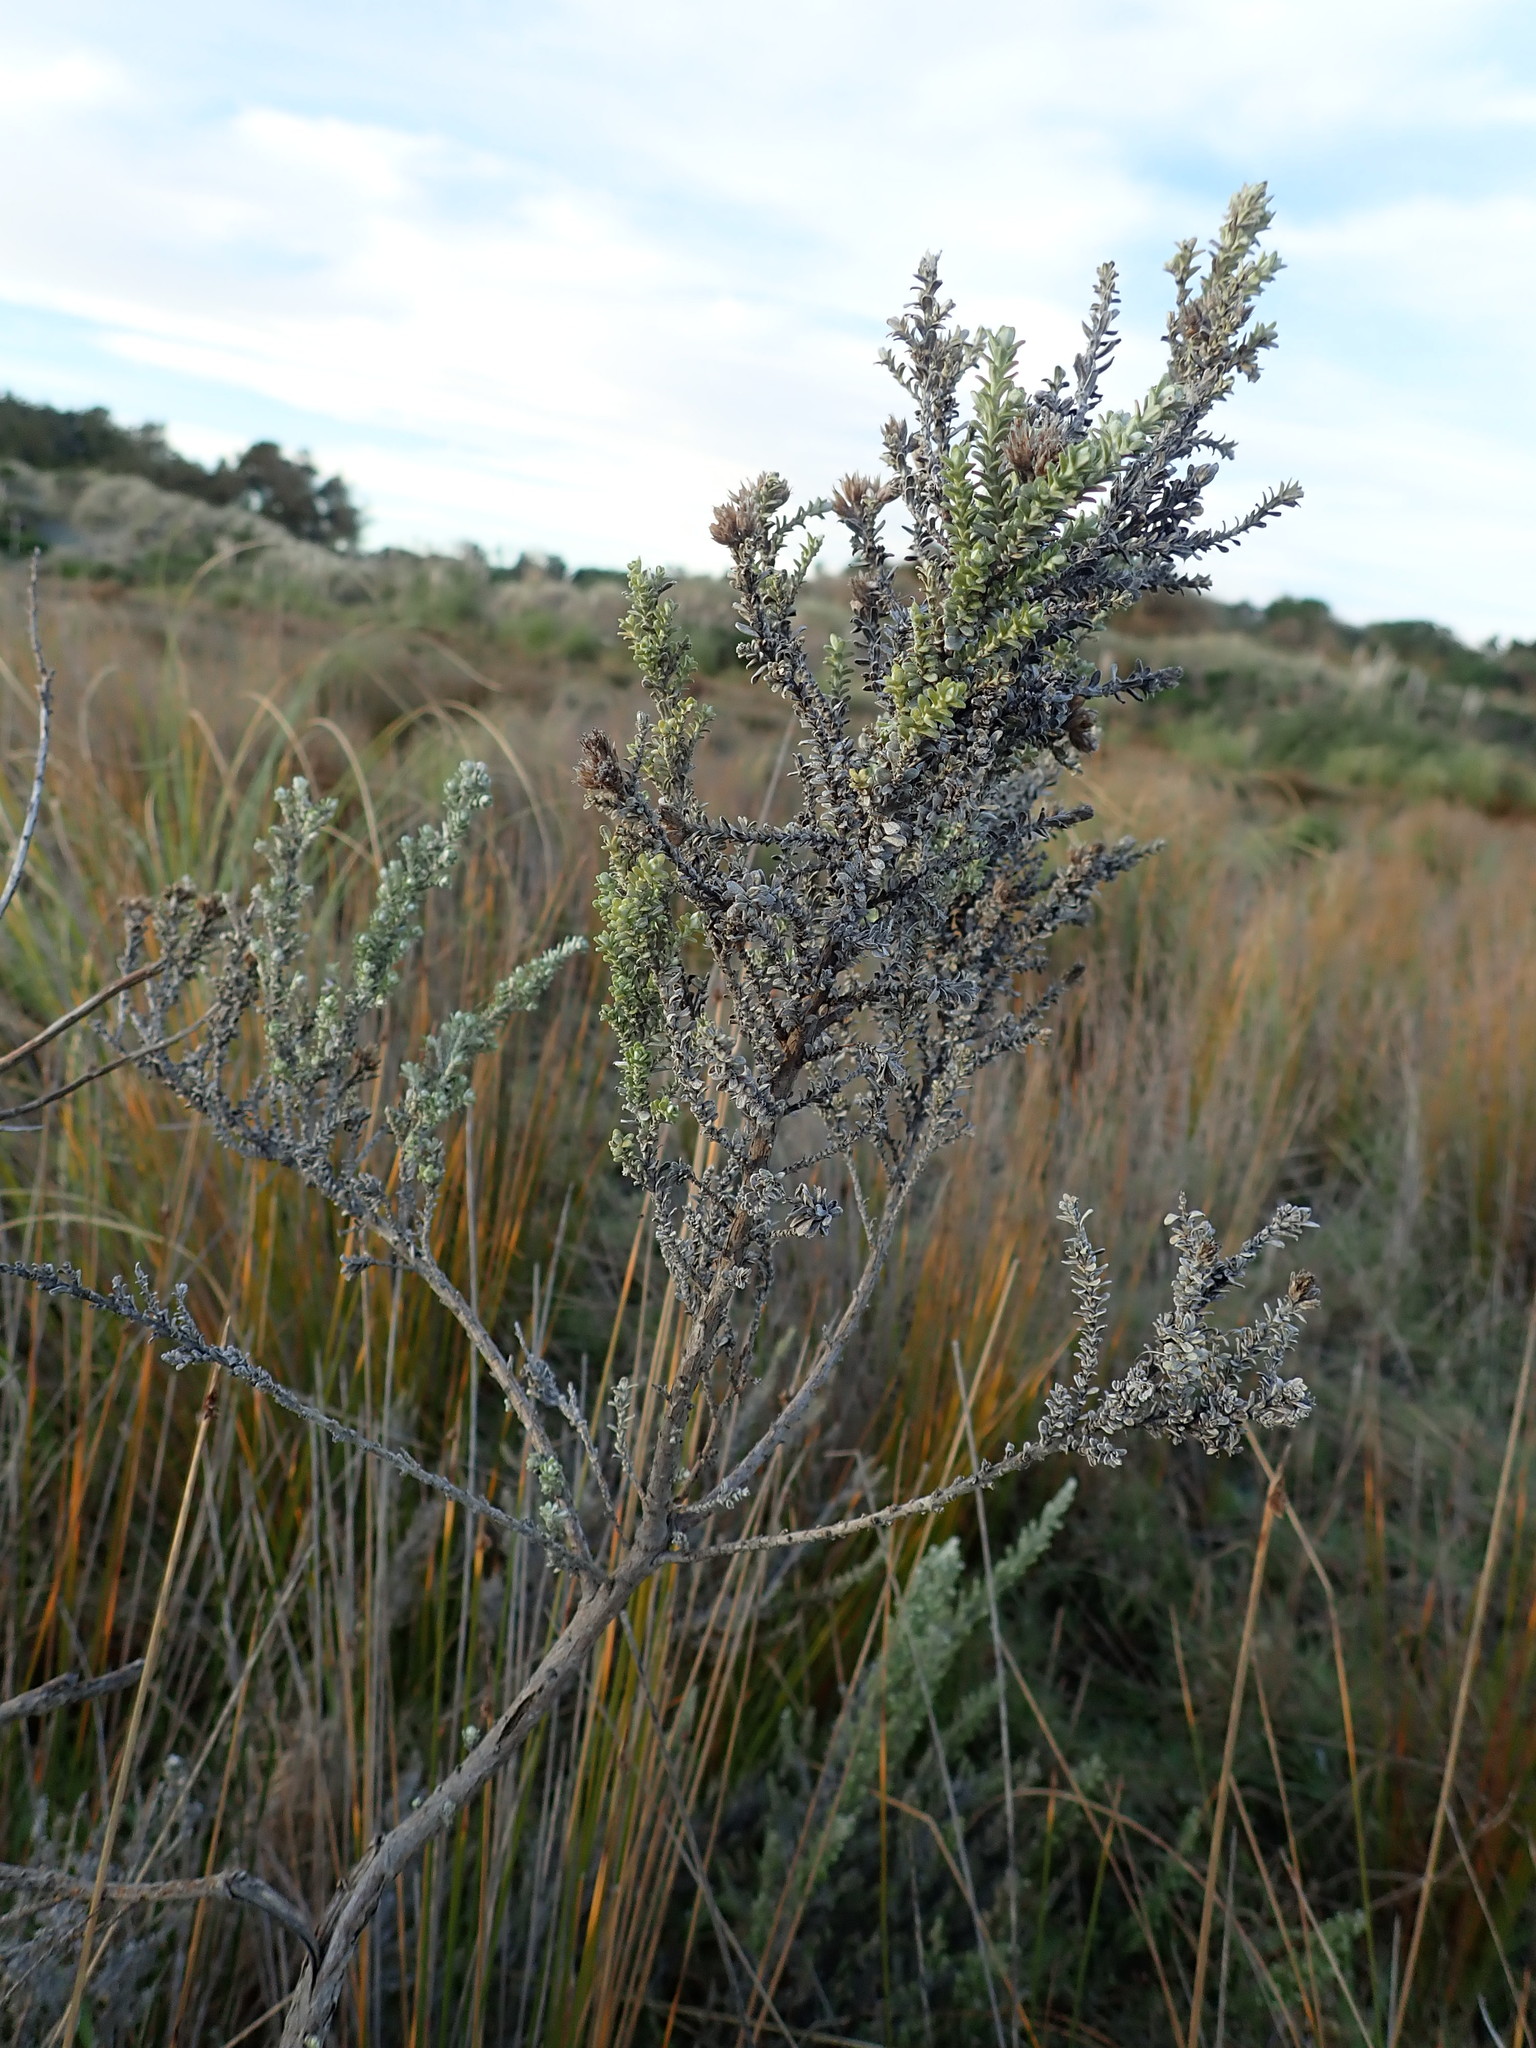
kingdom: Plantae
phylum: Tracheophyta
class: Magnoliopsida
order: Asterales
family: Asteraceae
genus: Ozothamnus
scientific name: Ozothamnus leptophyllus
